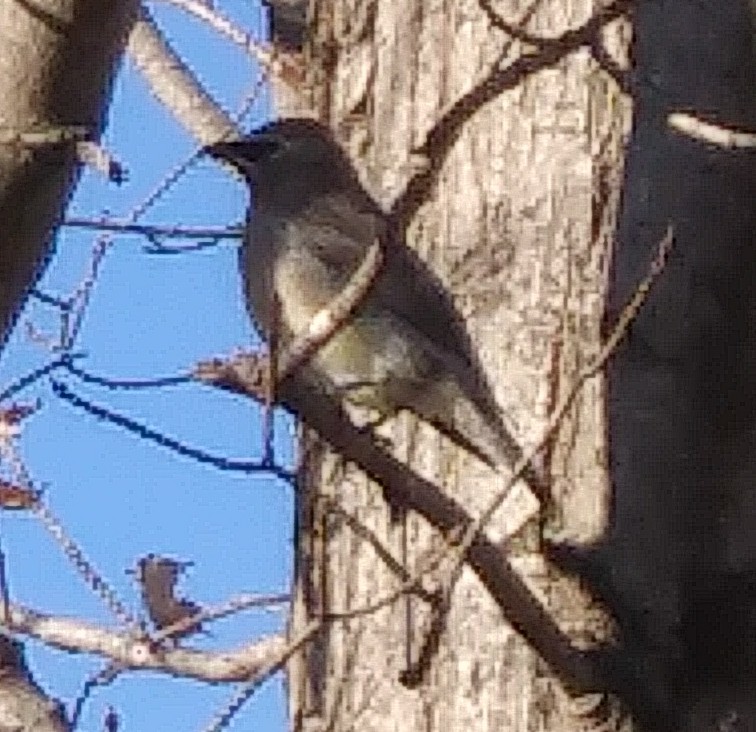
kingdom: Animalia
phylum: Chordata
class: Aves
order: Passeriformes
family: Bombycillidae
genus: Bombycilla
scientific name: Bombycilla cedrorum
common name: Cedar waxwing
